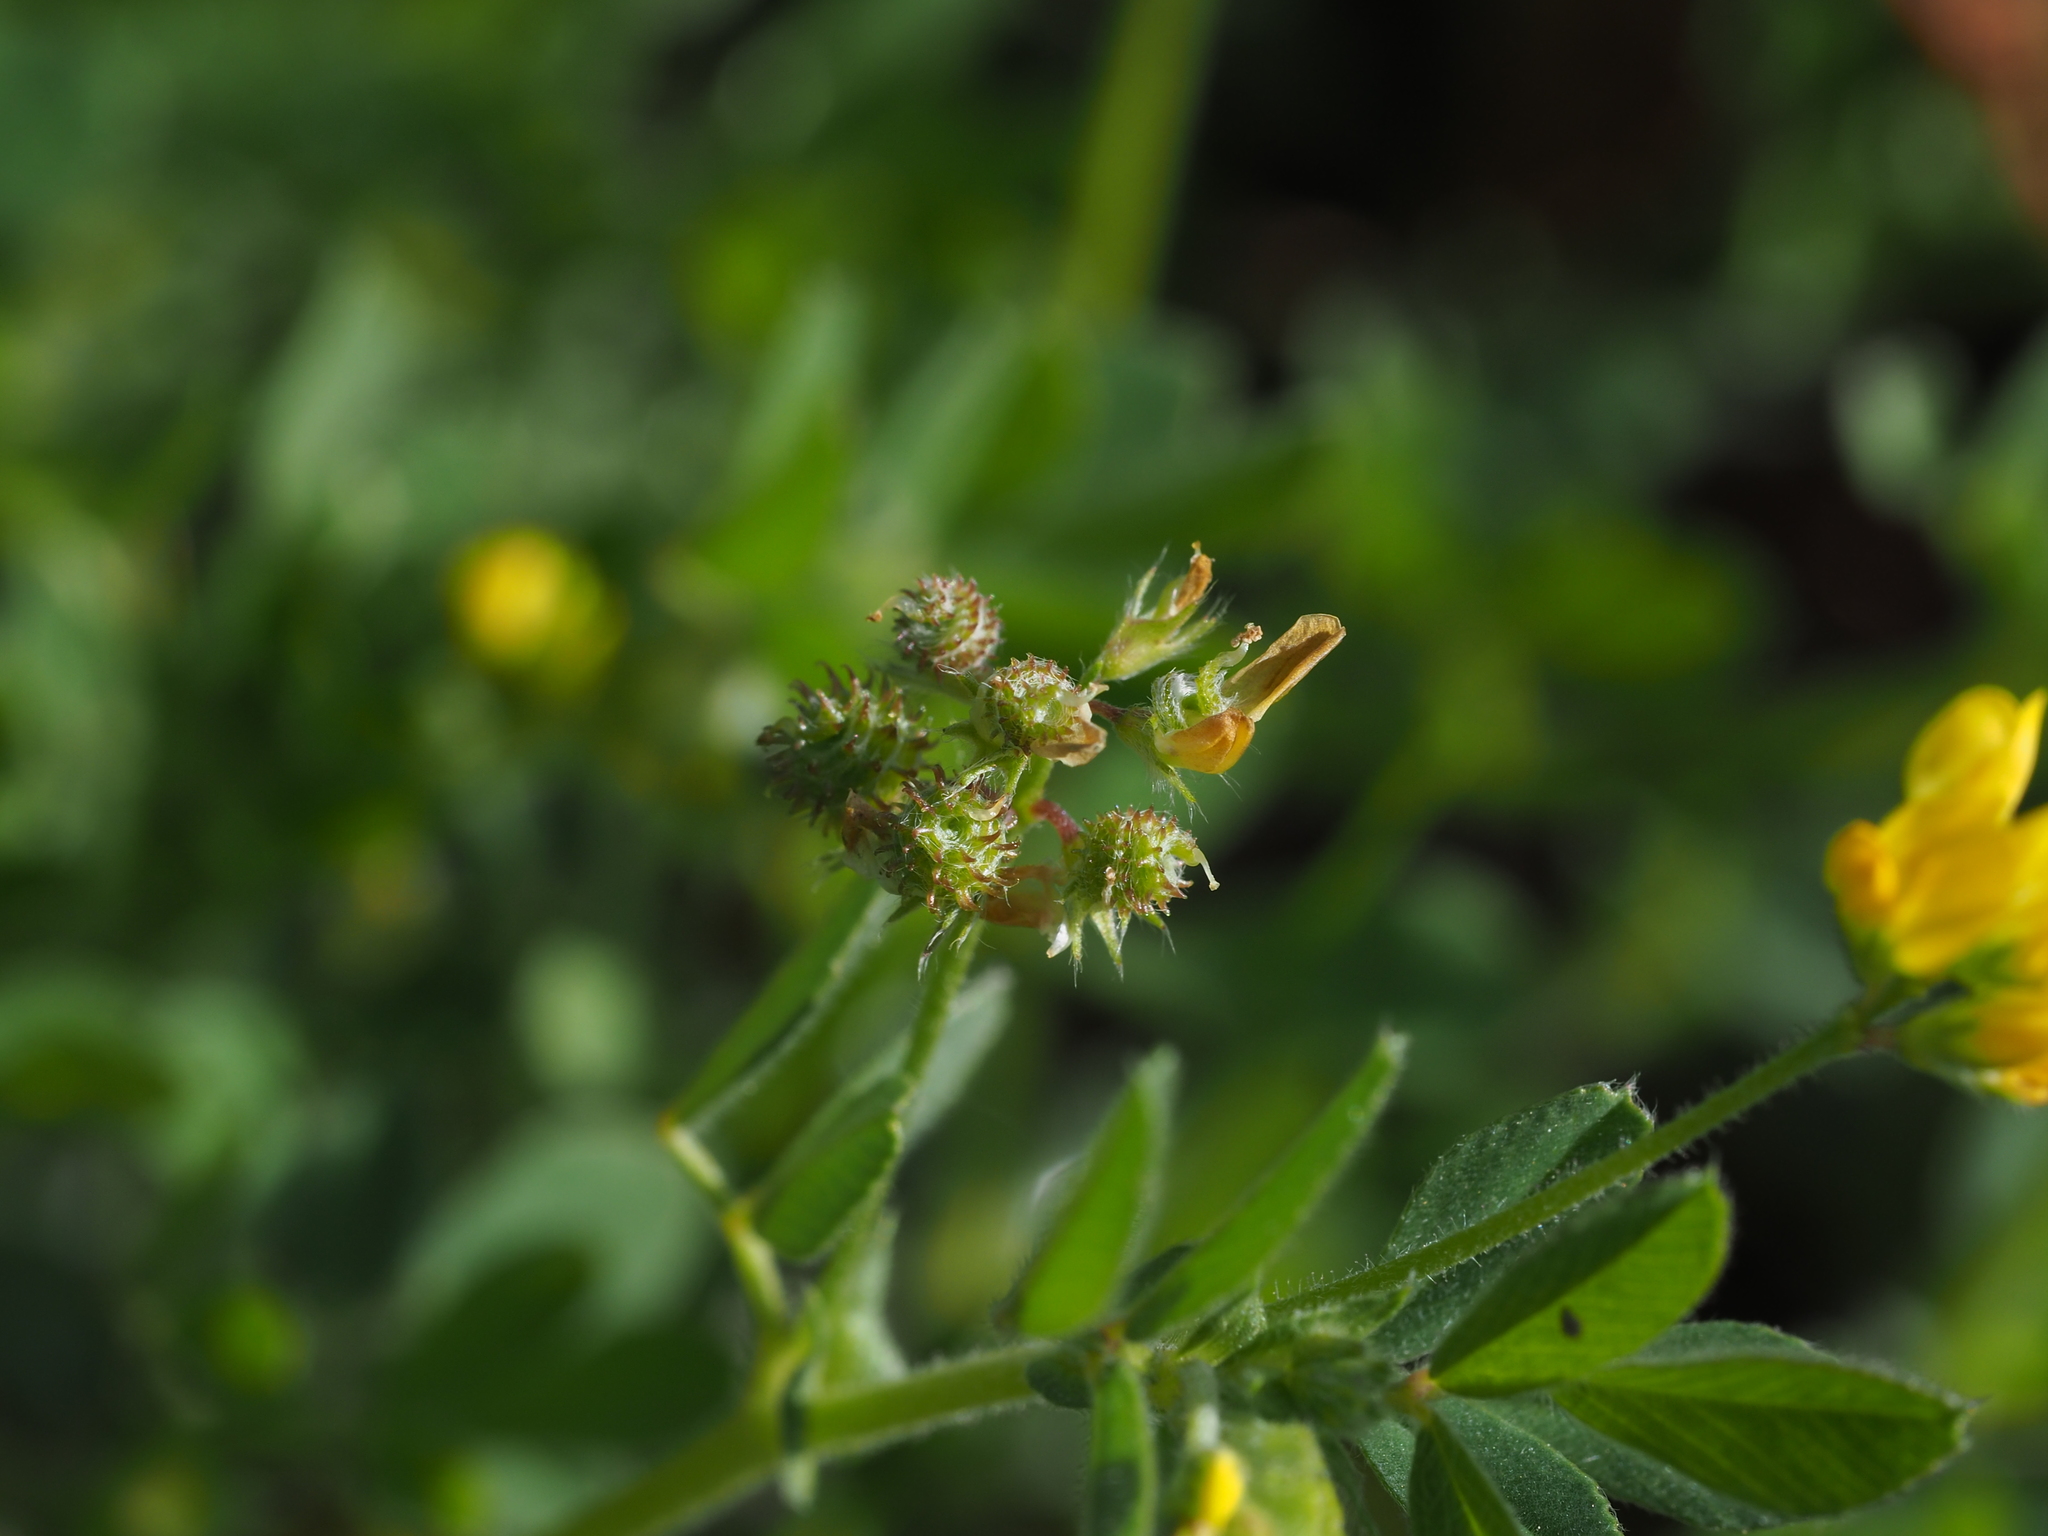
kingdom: Plantae
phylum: Tracheophyta
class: Magnoliopsida
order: Fabales
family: Fabaceae
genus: Medicago
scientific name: Medicago minima
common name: Little bur-clover
